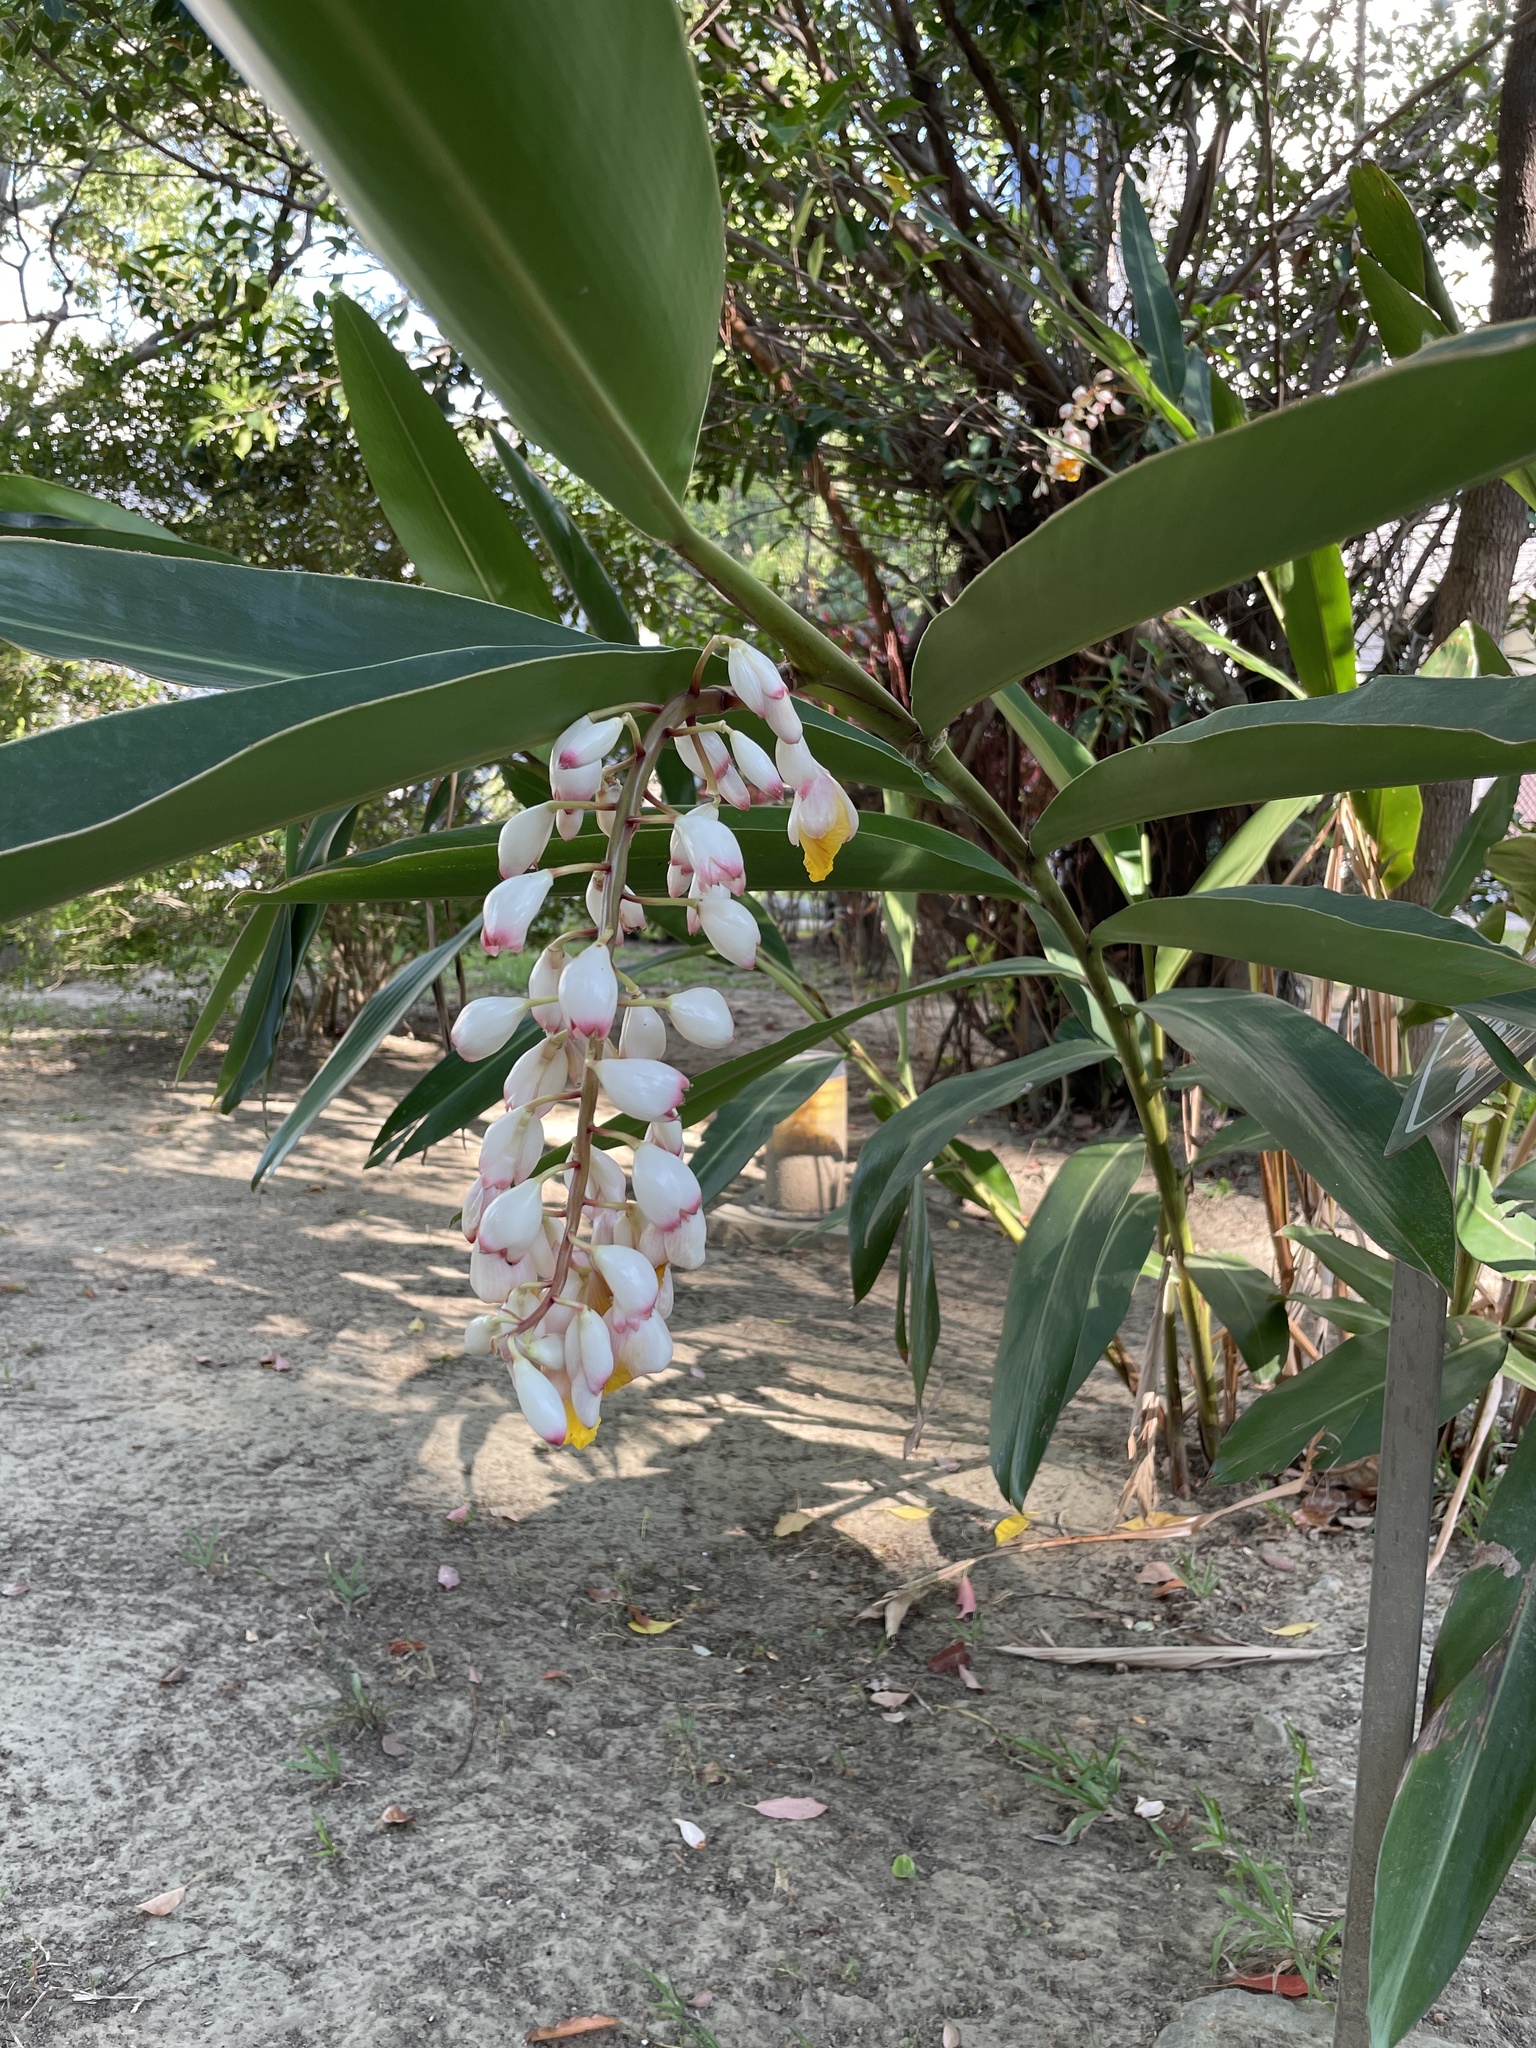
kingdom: Plantae
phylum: Tracheophyta
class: Liliopsida
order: Zingiberales
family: Zingiberaceae
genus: Alpinia
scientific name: Alpinia zerumbet
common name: Shellplant
